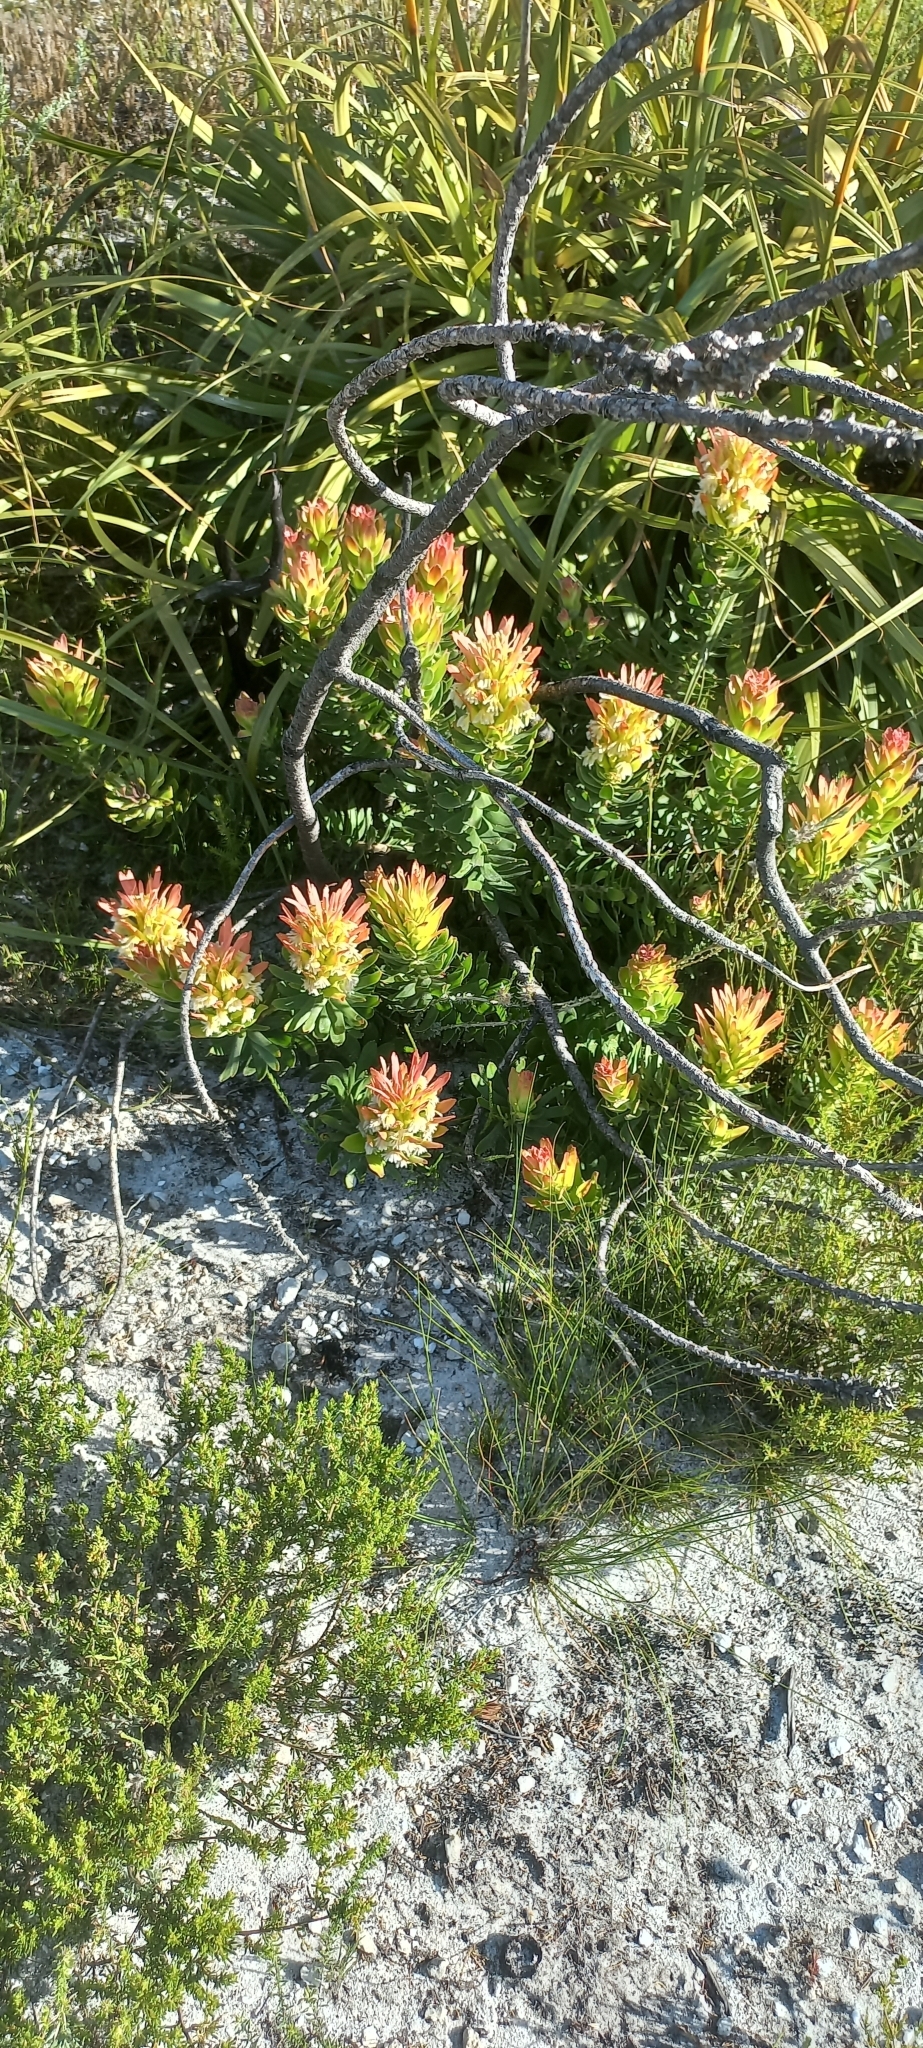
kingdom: Plantae
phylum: Tracheophyta
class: Magnoliopsida
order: Proteales
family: Proteaceae
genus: Mimetes
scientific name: Mimetes cucullatus
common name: Common pagoda
